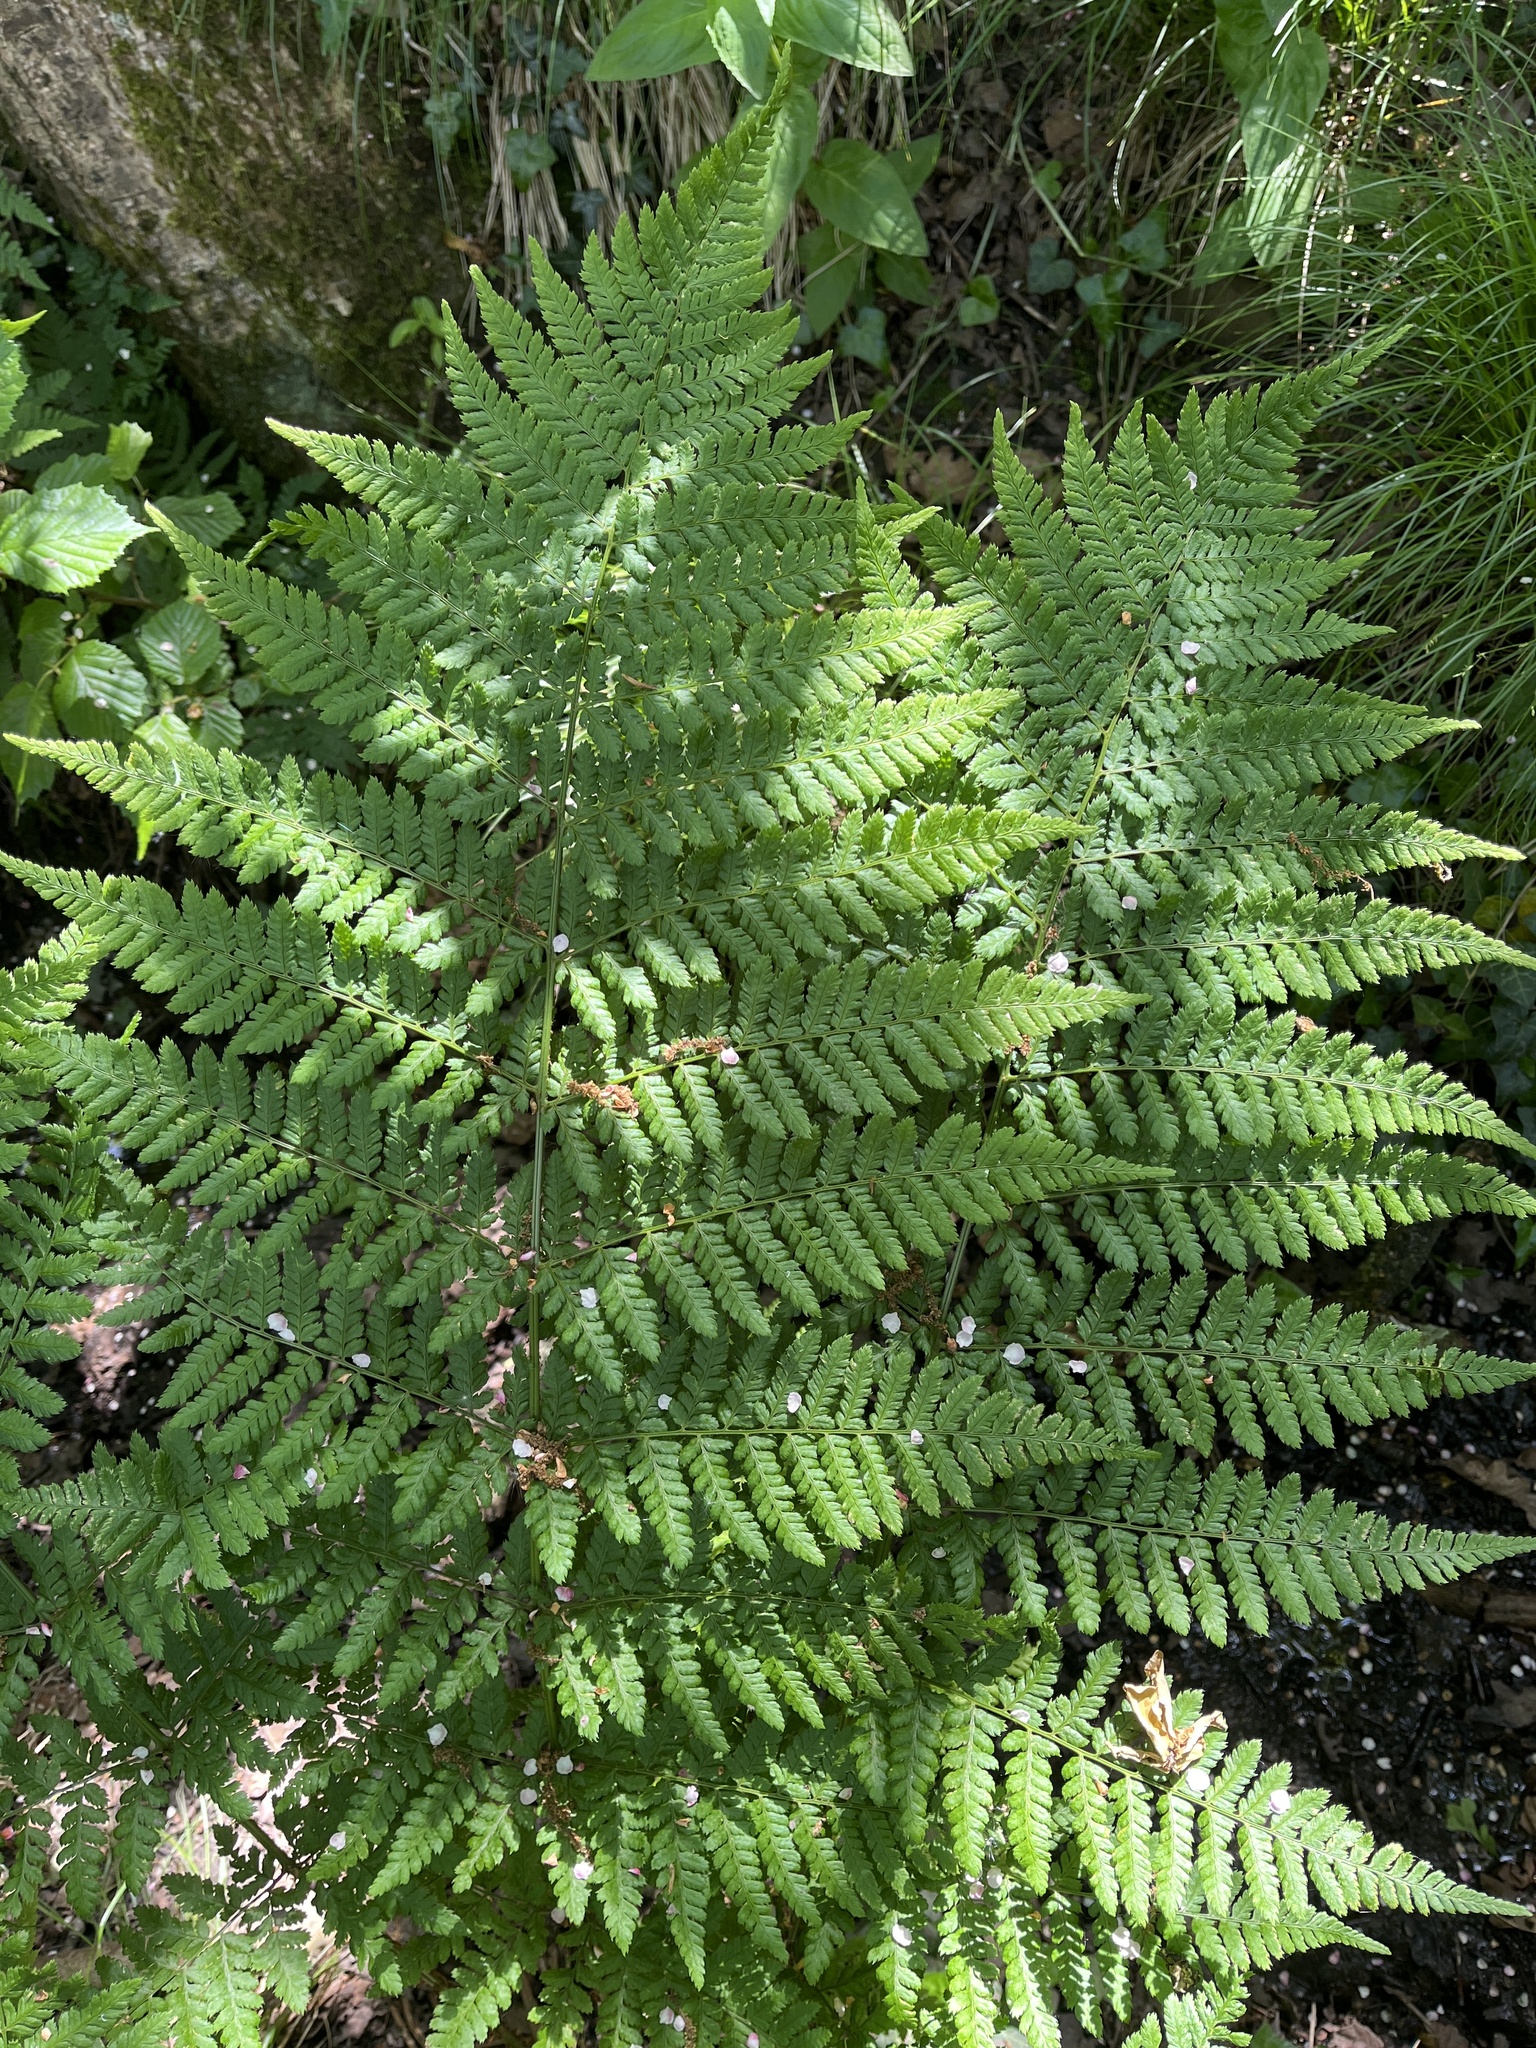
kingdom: Plantae
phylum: Tracheophyta
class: Polypodiopsida
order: Polypodiales
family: Dryopteridaceae
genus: Dryopteris
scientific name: Dryopteris dilatata
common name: Broad buckler-fern
